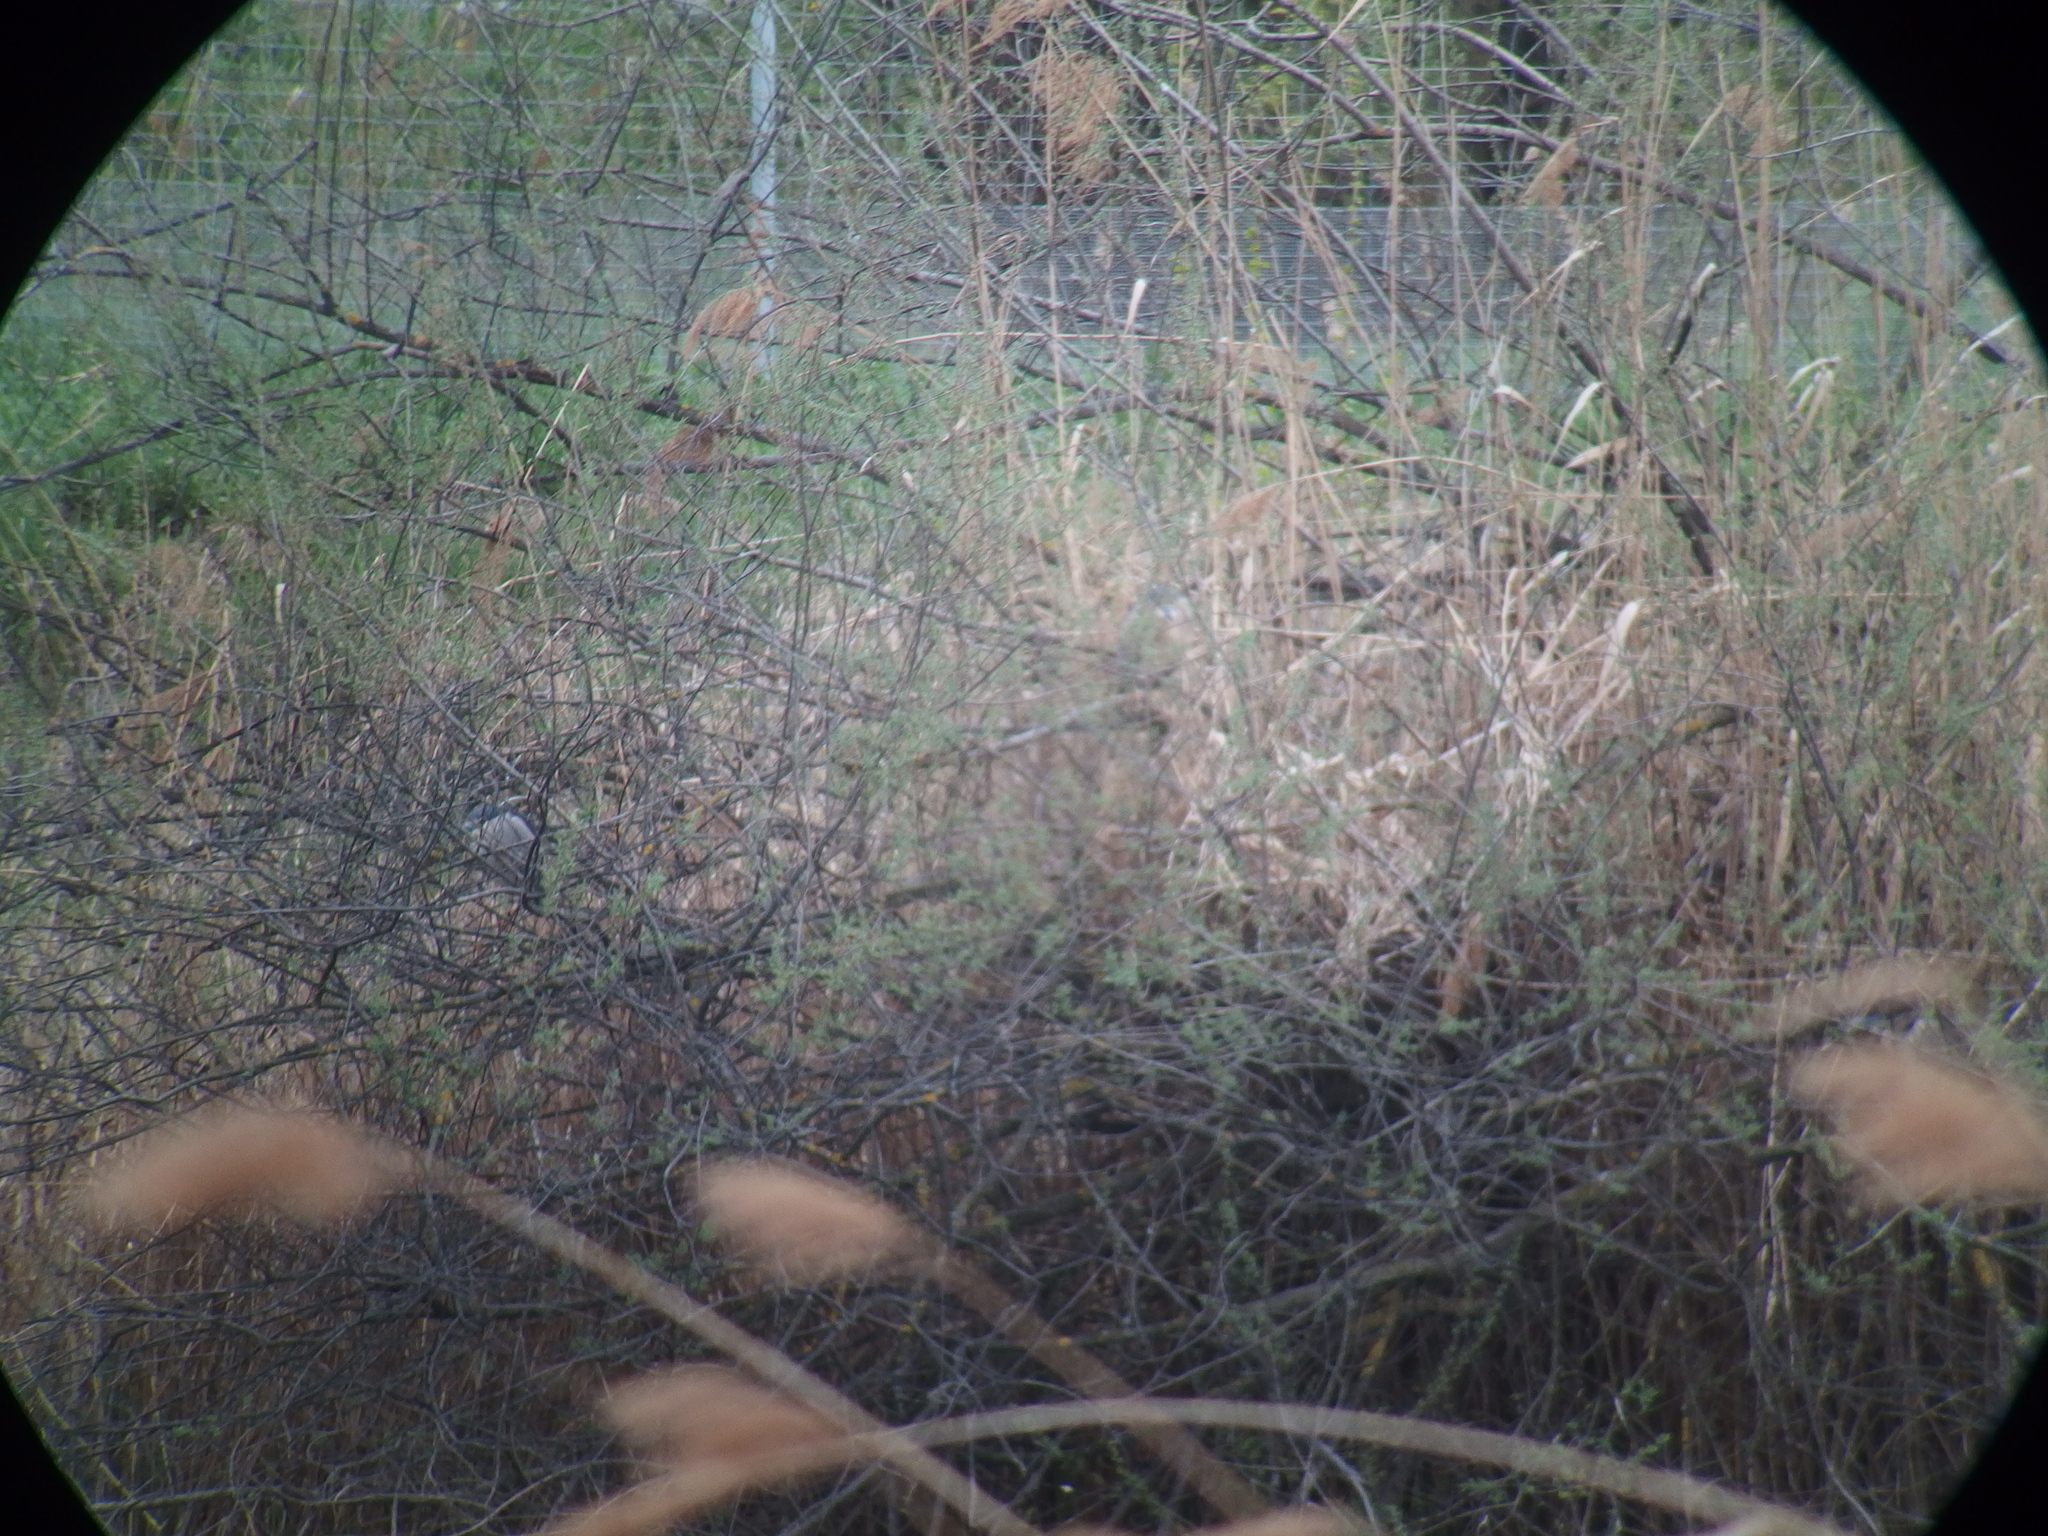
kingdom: Animalia
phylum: Chordata
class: Aves
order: Pelecaniformes
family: Ardeidae
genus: Nycticorax
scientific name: Nycticorax nycticorax
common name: Black-crowned night heron
